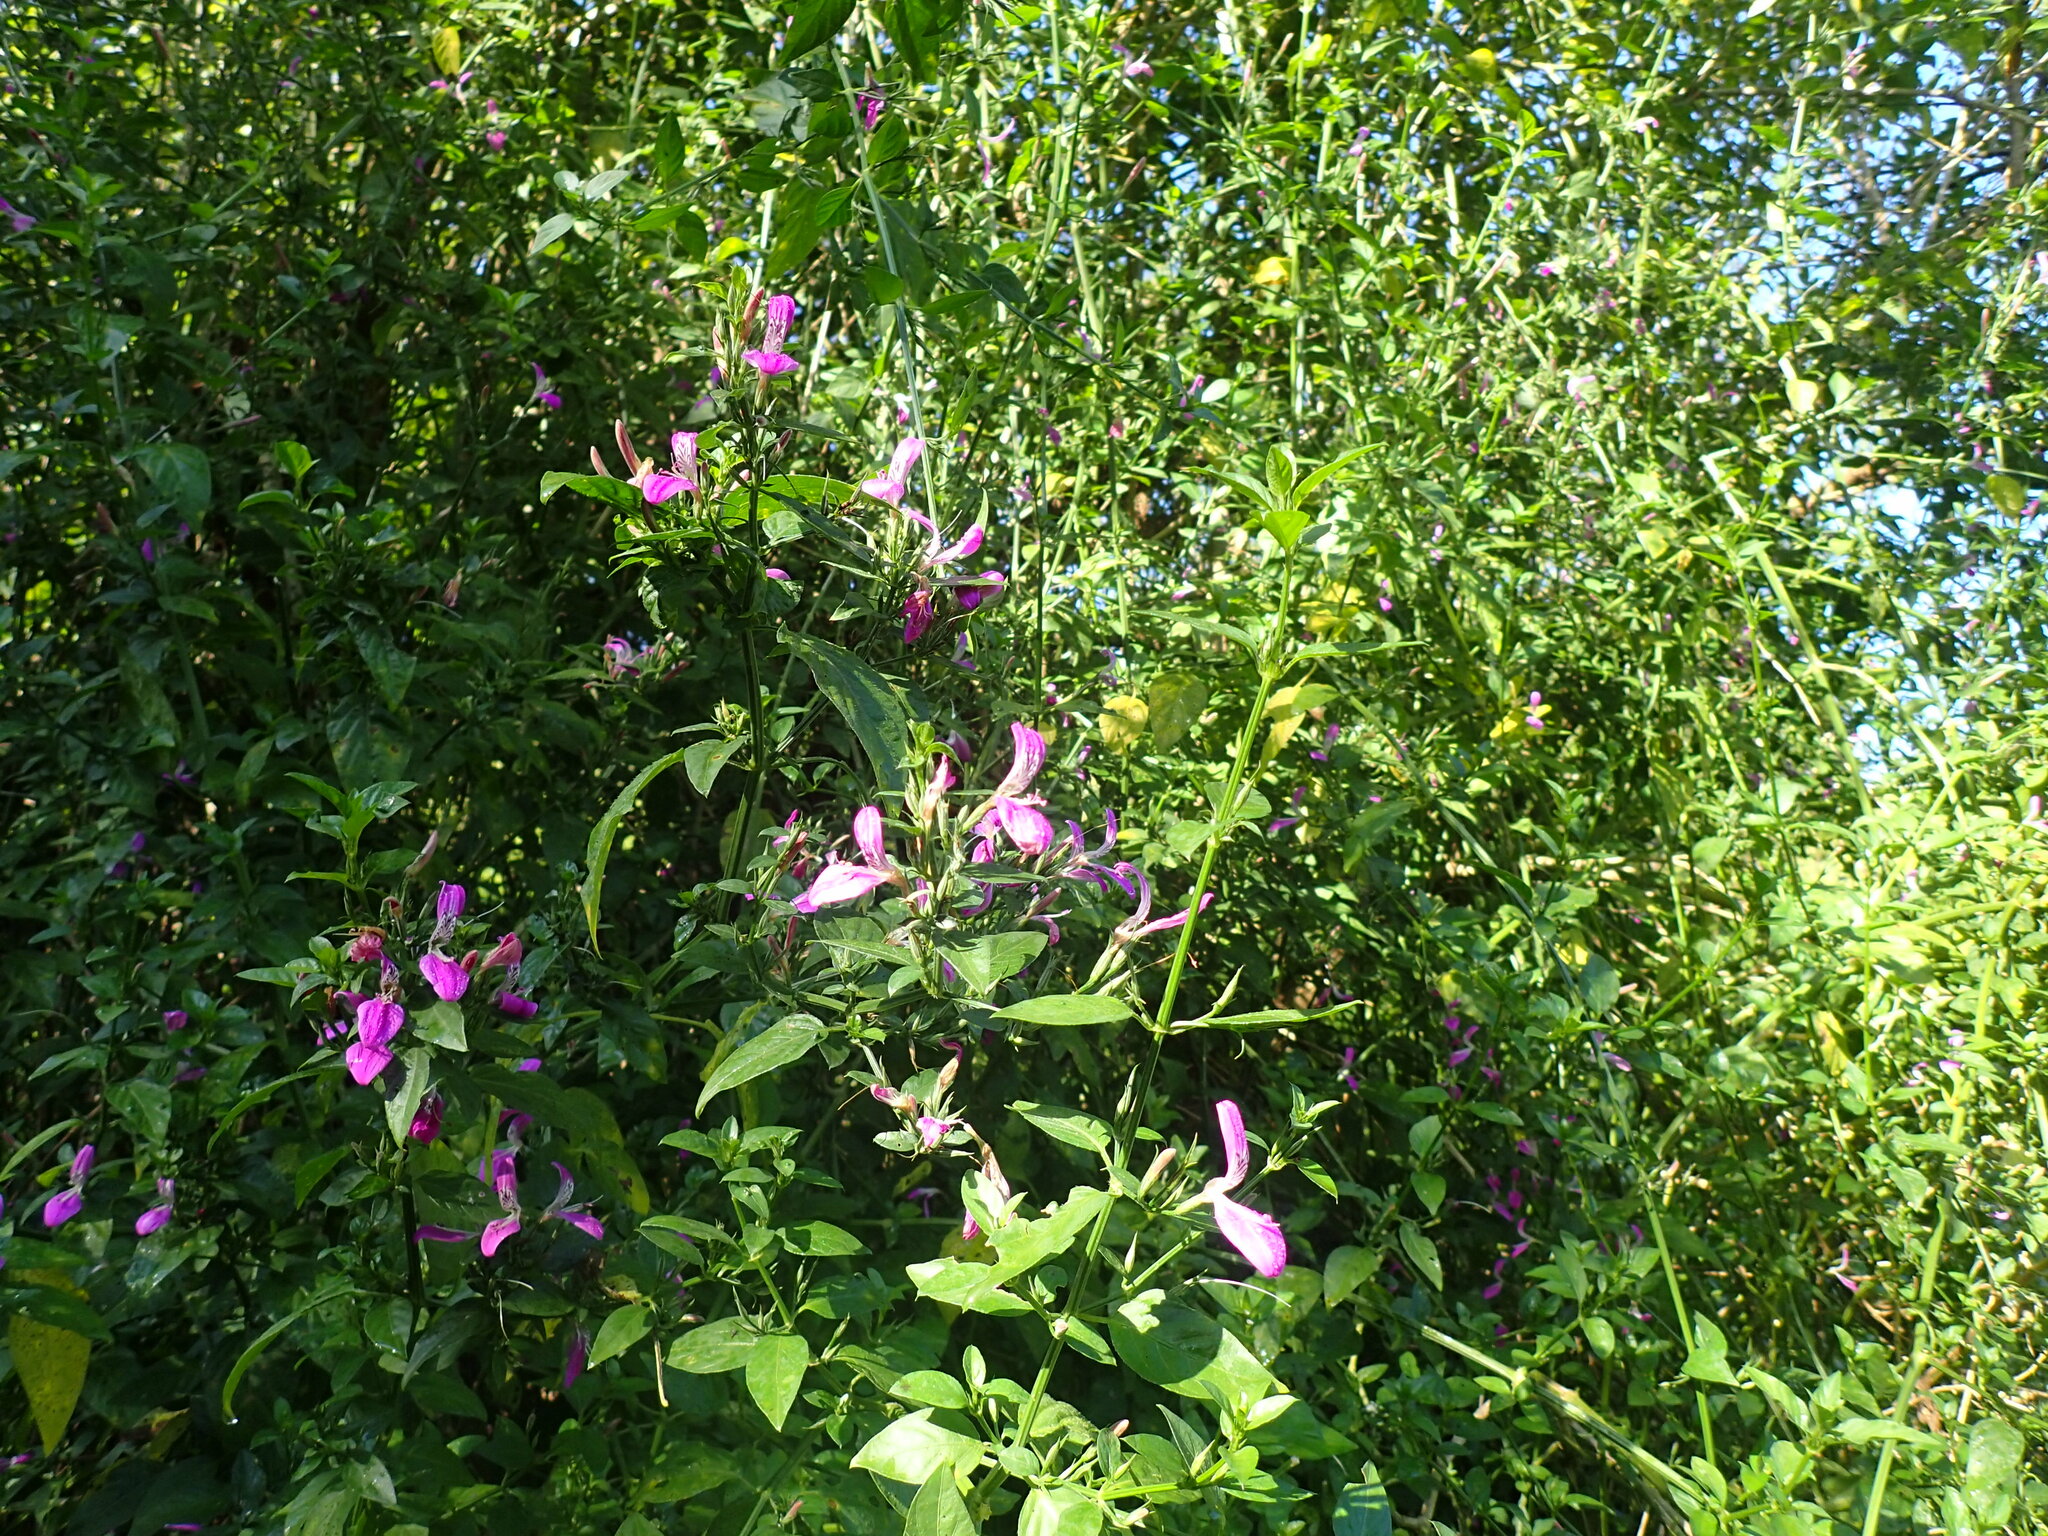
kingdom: Plantae
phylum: Tracheophyta
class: Magnoliopsida
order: Lamiales
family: Acanthaceae
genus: Dicliptera
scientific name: Dicliptera cernua
